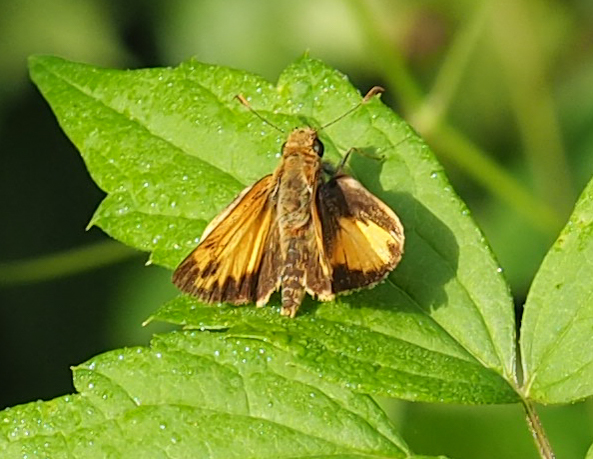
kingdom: Animalia
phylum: Arthropoda
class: Insecta
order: Lepidoptera
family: Hesperiidae
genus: Lon
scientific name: Lon zabulon
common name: Zabulon skipper
